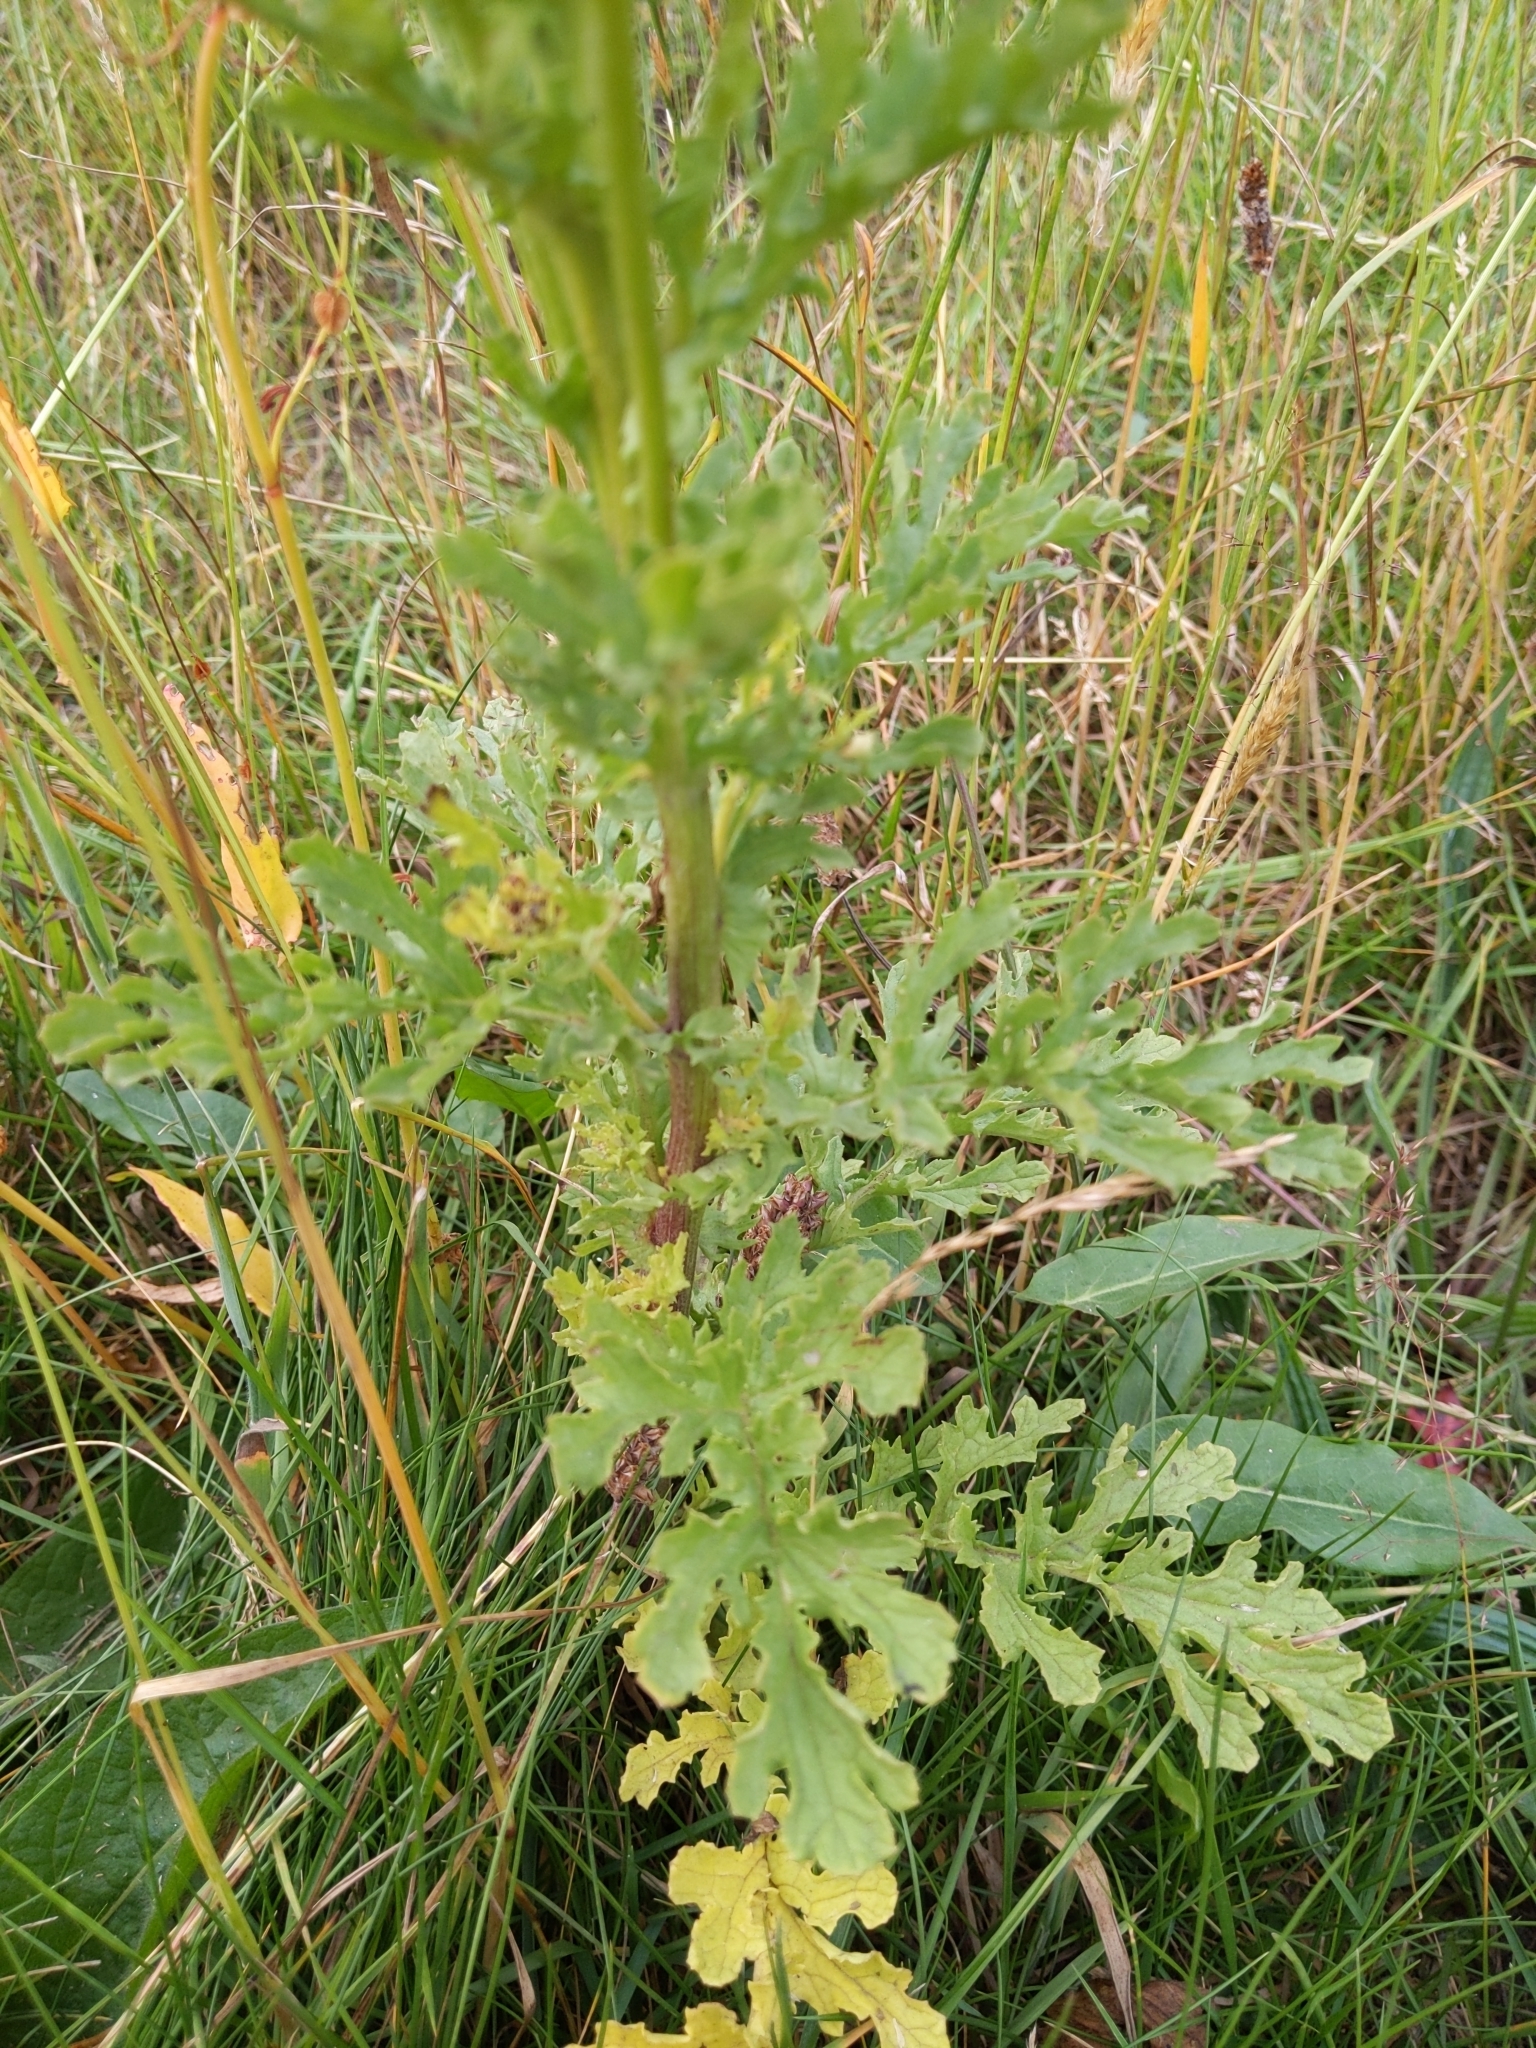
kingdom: Plantae
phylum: Tracheophyta
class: Magnoliopsida
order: Asterales
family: Asteraceae
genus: Jacobaea
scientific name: Jacobaea vulgaris
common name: Stinking willie
